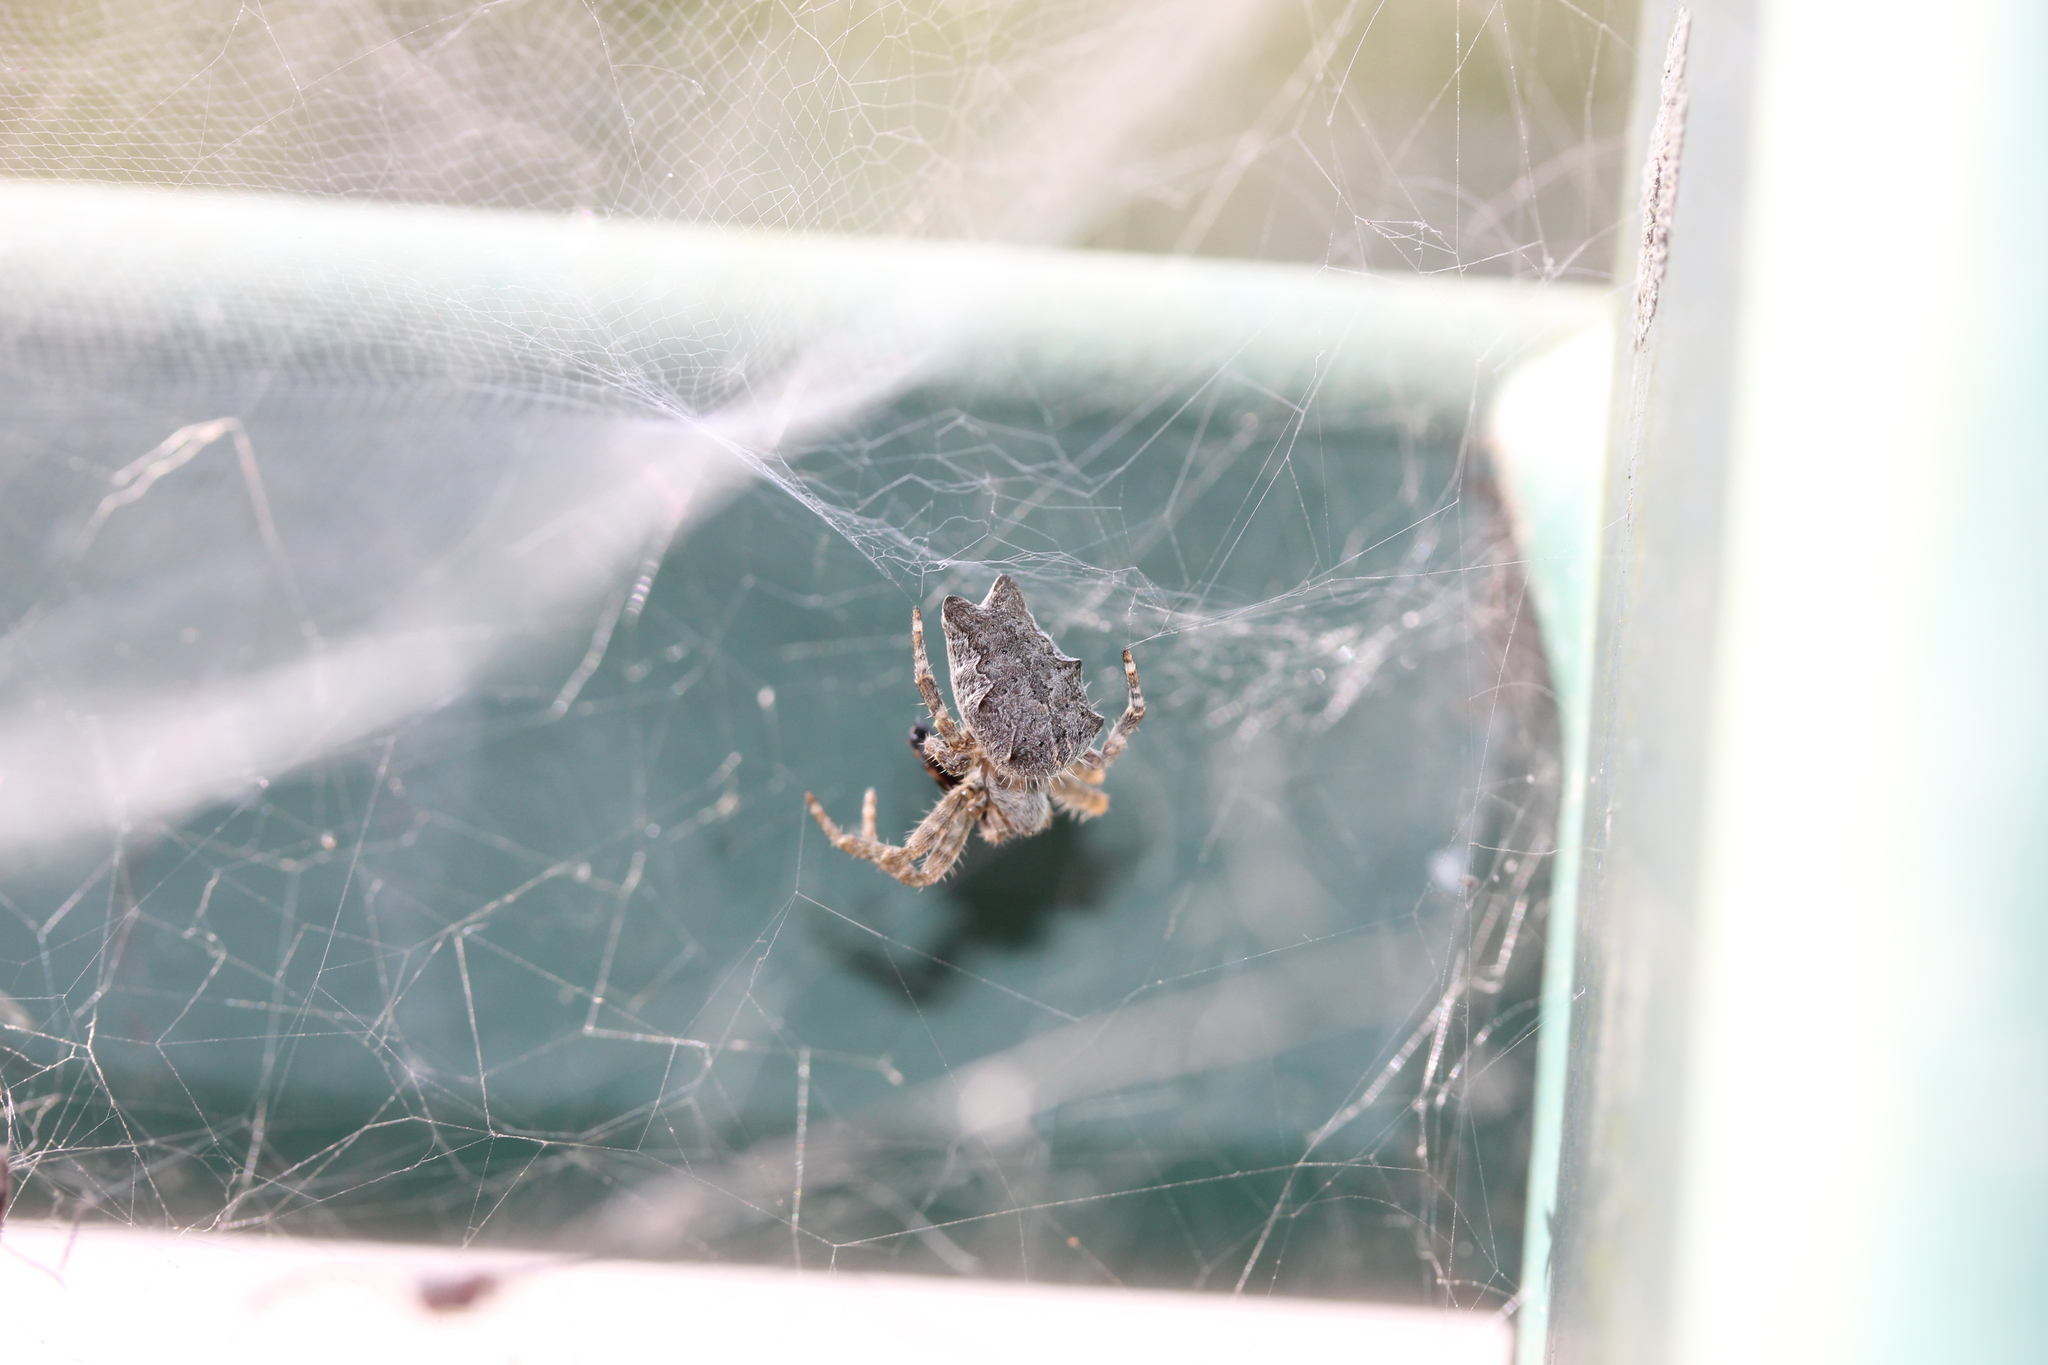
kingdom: Animalia
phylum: Arthropoda
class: Arachnida
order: Araneae
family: Araneidae
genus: Cyrtophora
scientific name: Cyrtophora citricola
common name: Orb weavers
